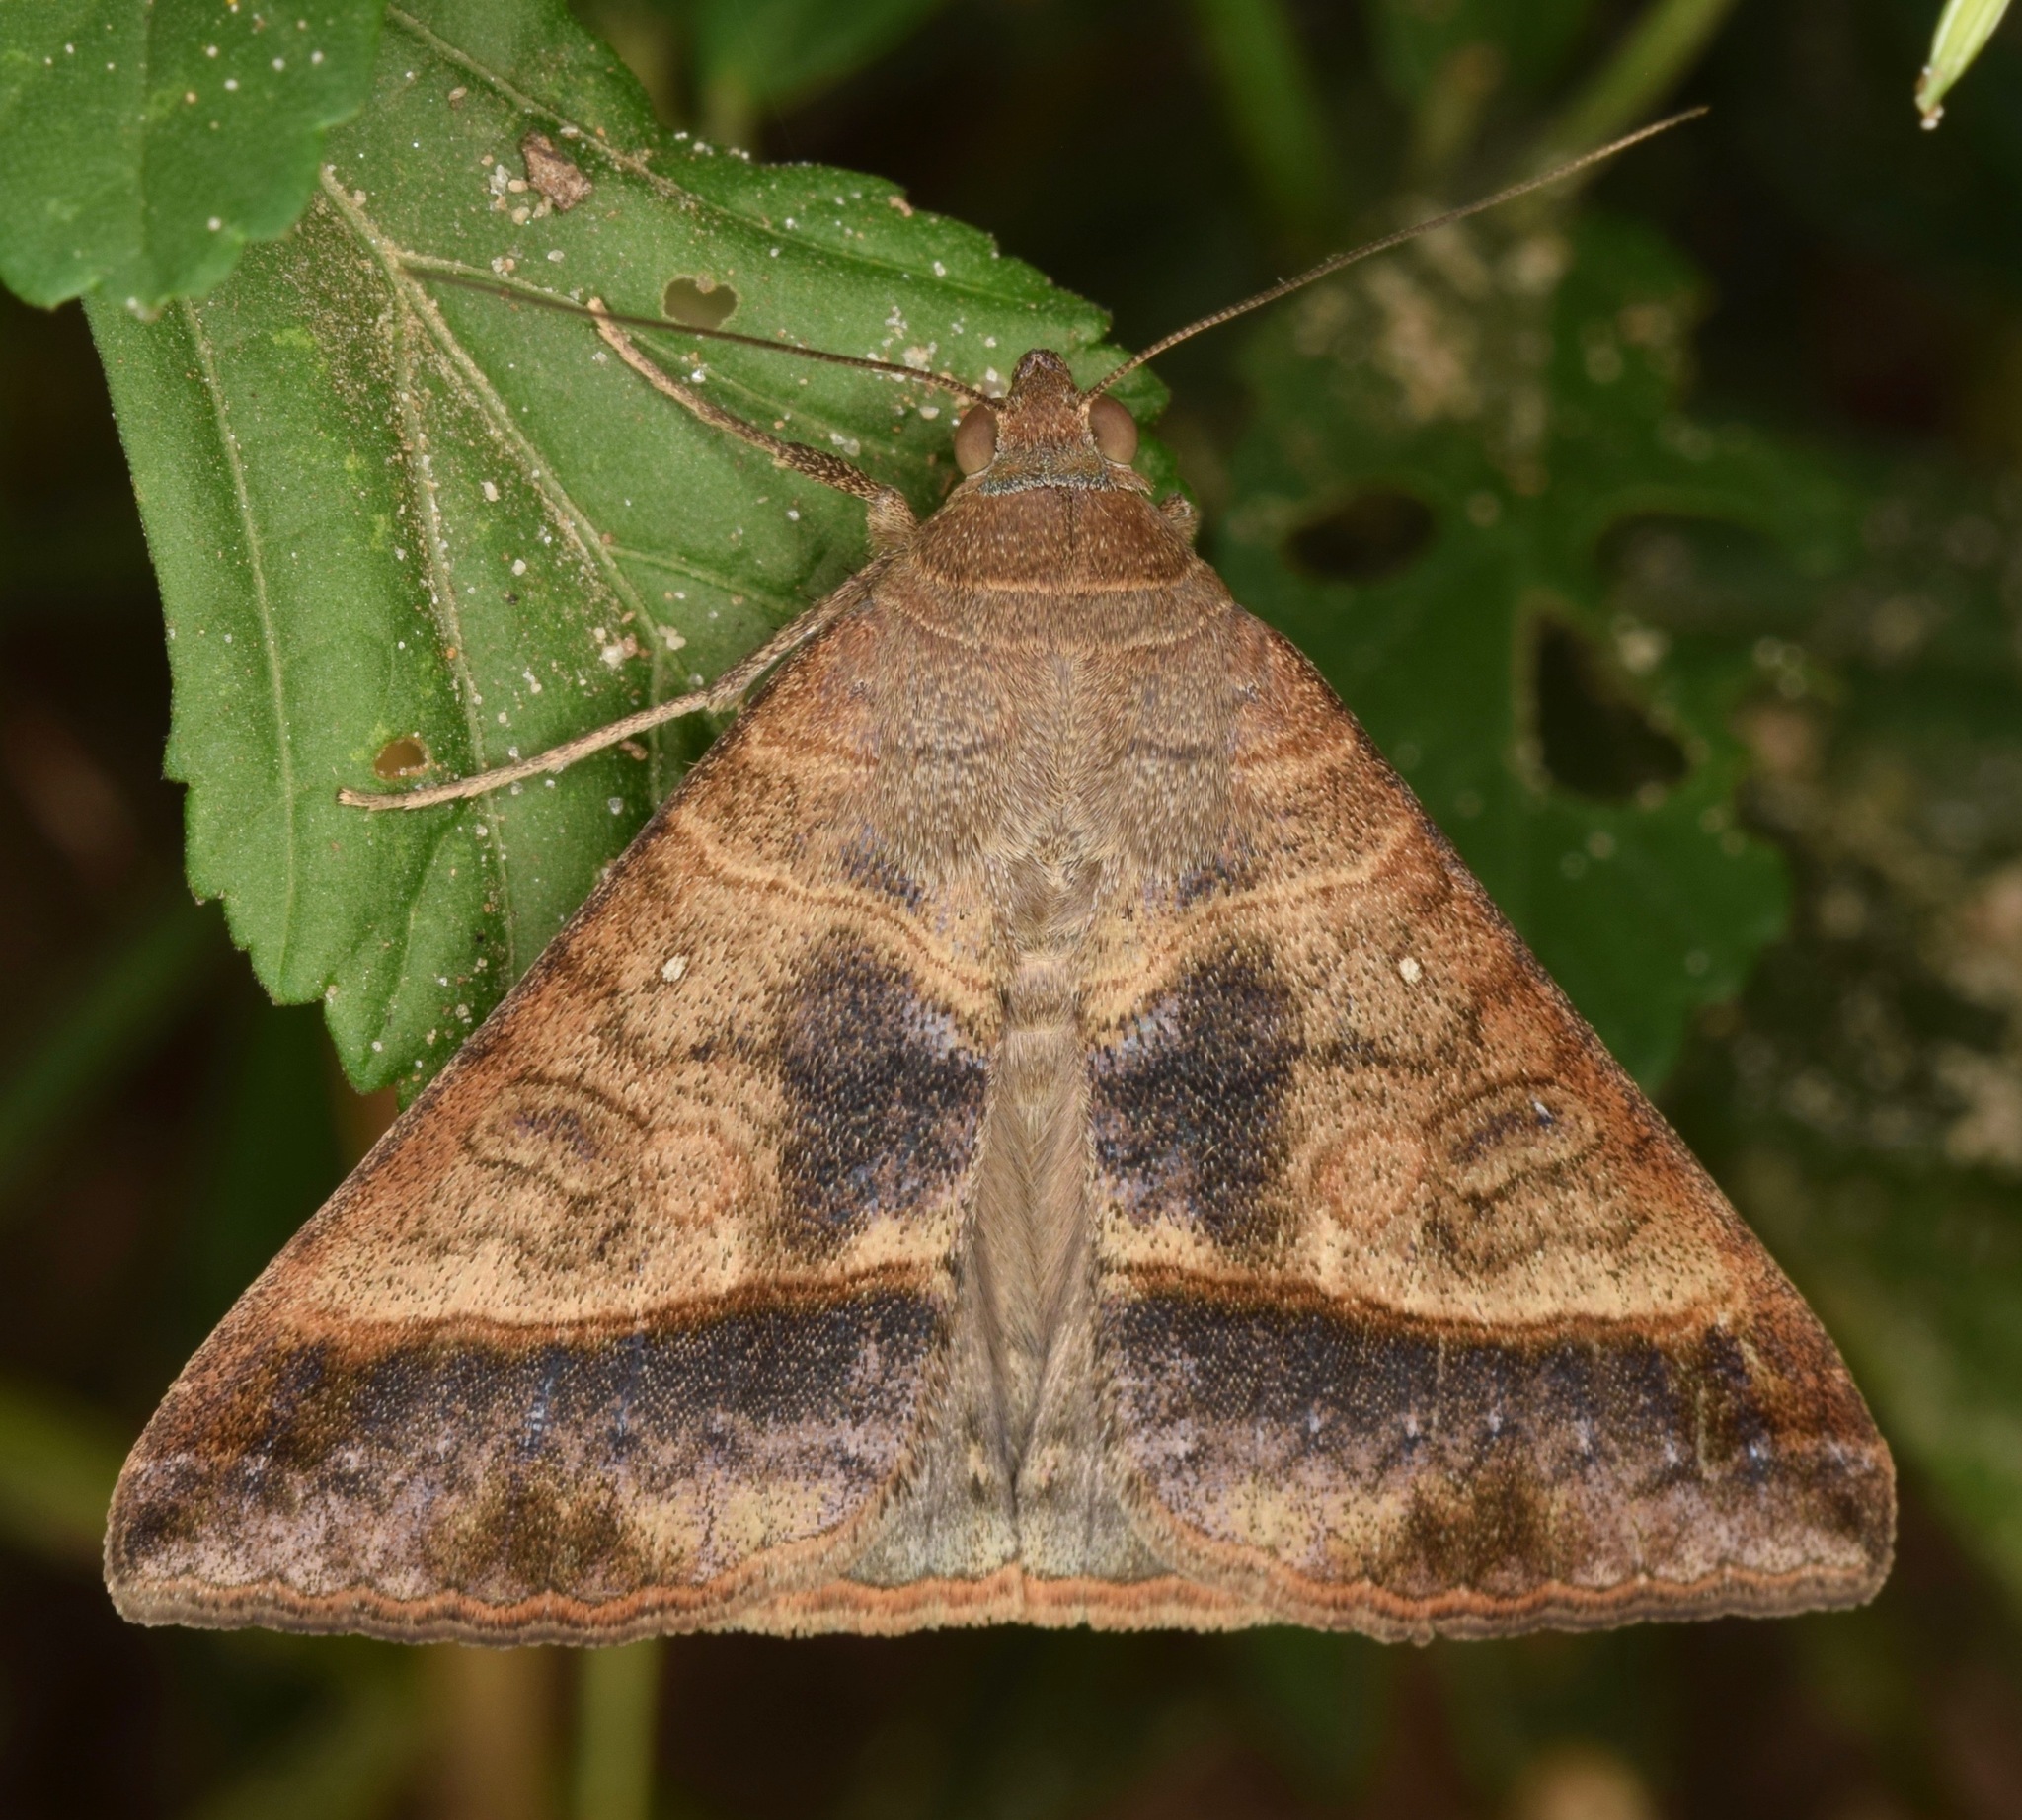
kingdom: Animalia
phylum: Arthropoda
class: Insecta
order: Lepidoptera
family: Erebidae
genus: Mocis
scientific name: Mocis latipes
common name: Striped grass looper
